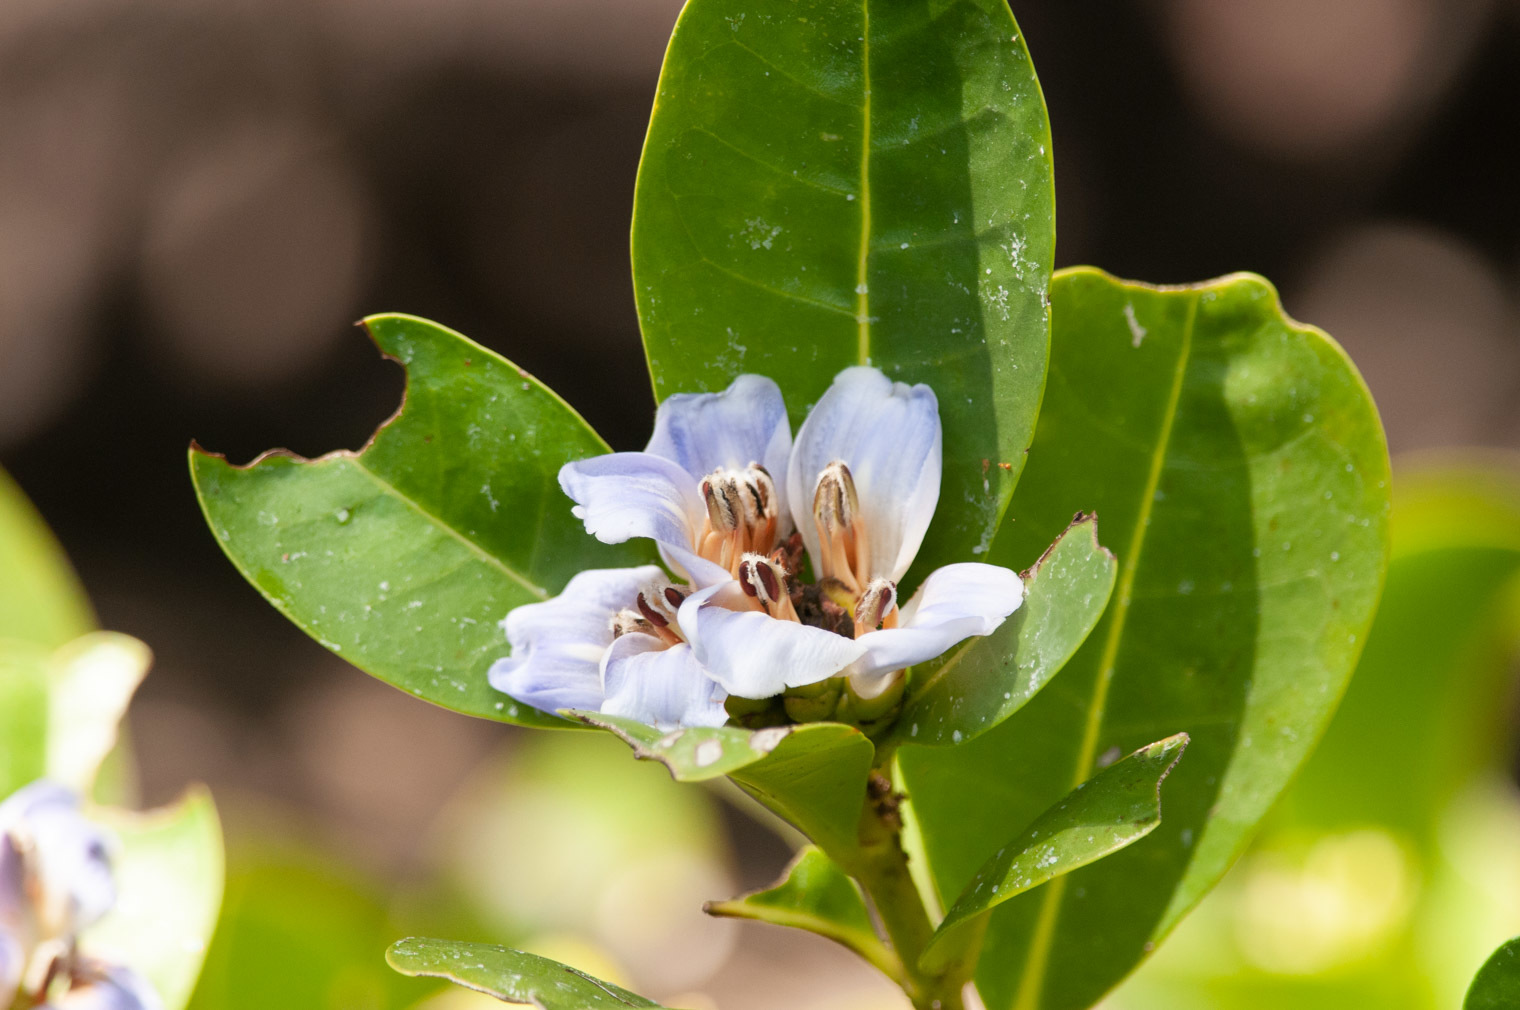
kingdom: Plantae
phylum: Tracheophyta
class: Magnoliopsida
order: Lamiales
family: Acanthaceae
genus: Acanthus
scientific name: Acanthus ilicifolius
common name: Holy mangrove
